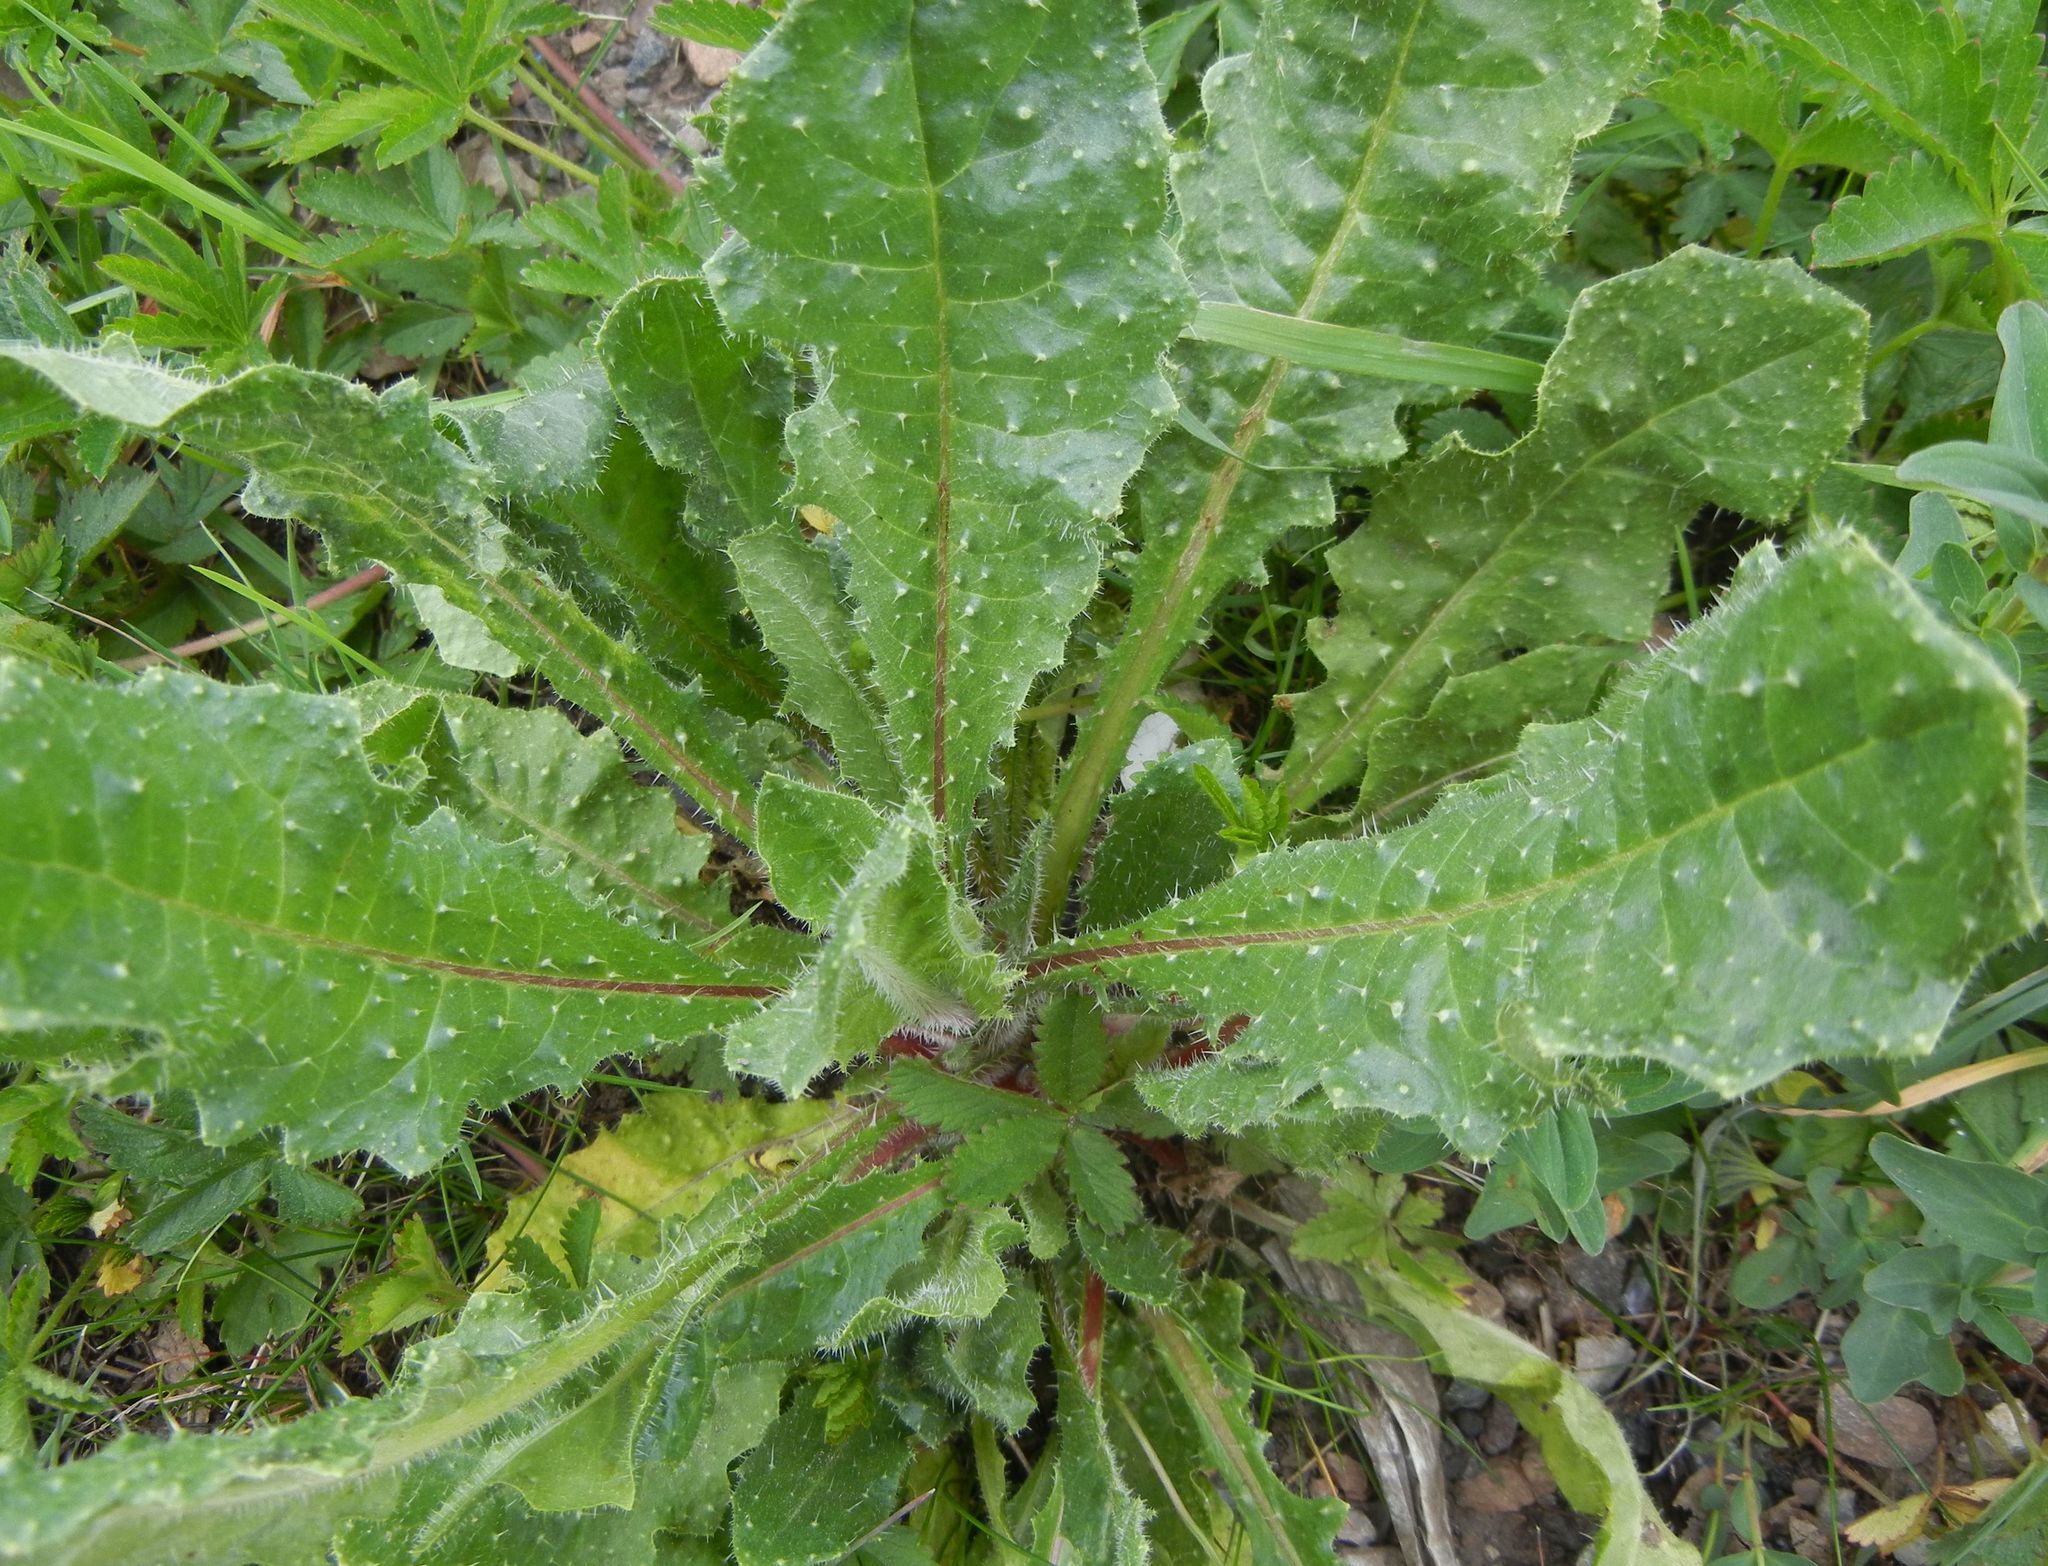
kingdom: Plantae
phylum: Tracheophyta
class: Magnoliopsida
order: Asterales
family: Asteraceae
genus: Helminthotheca
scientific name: Helminthotheca echioides
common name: Ox-tongue
